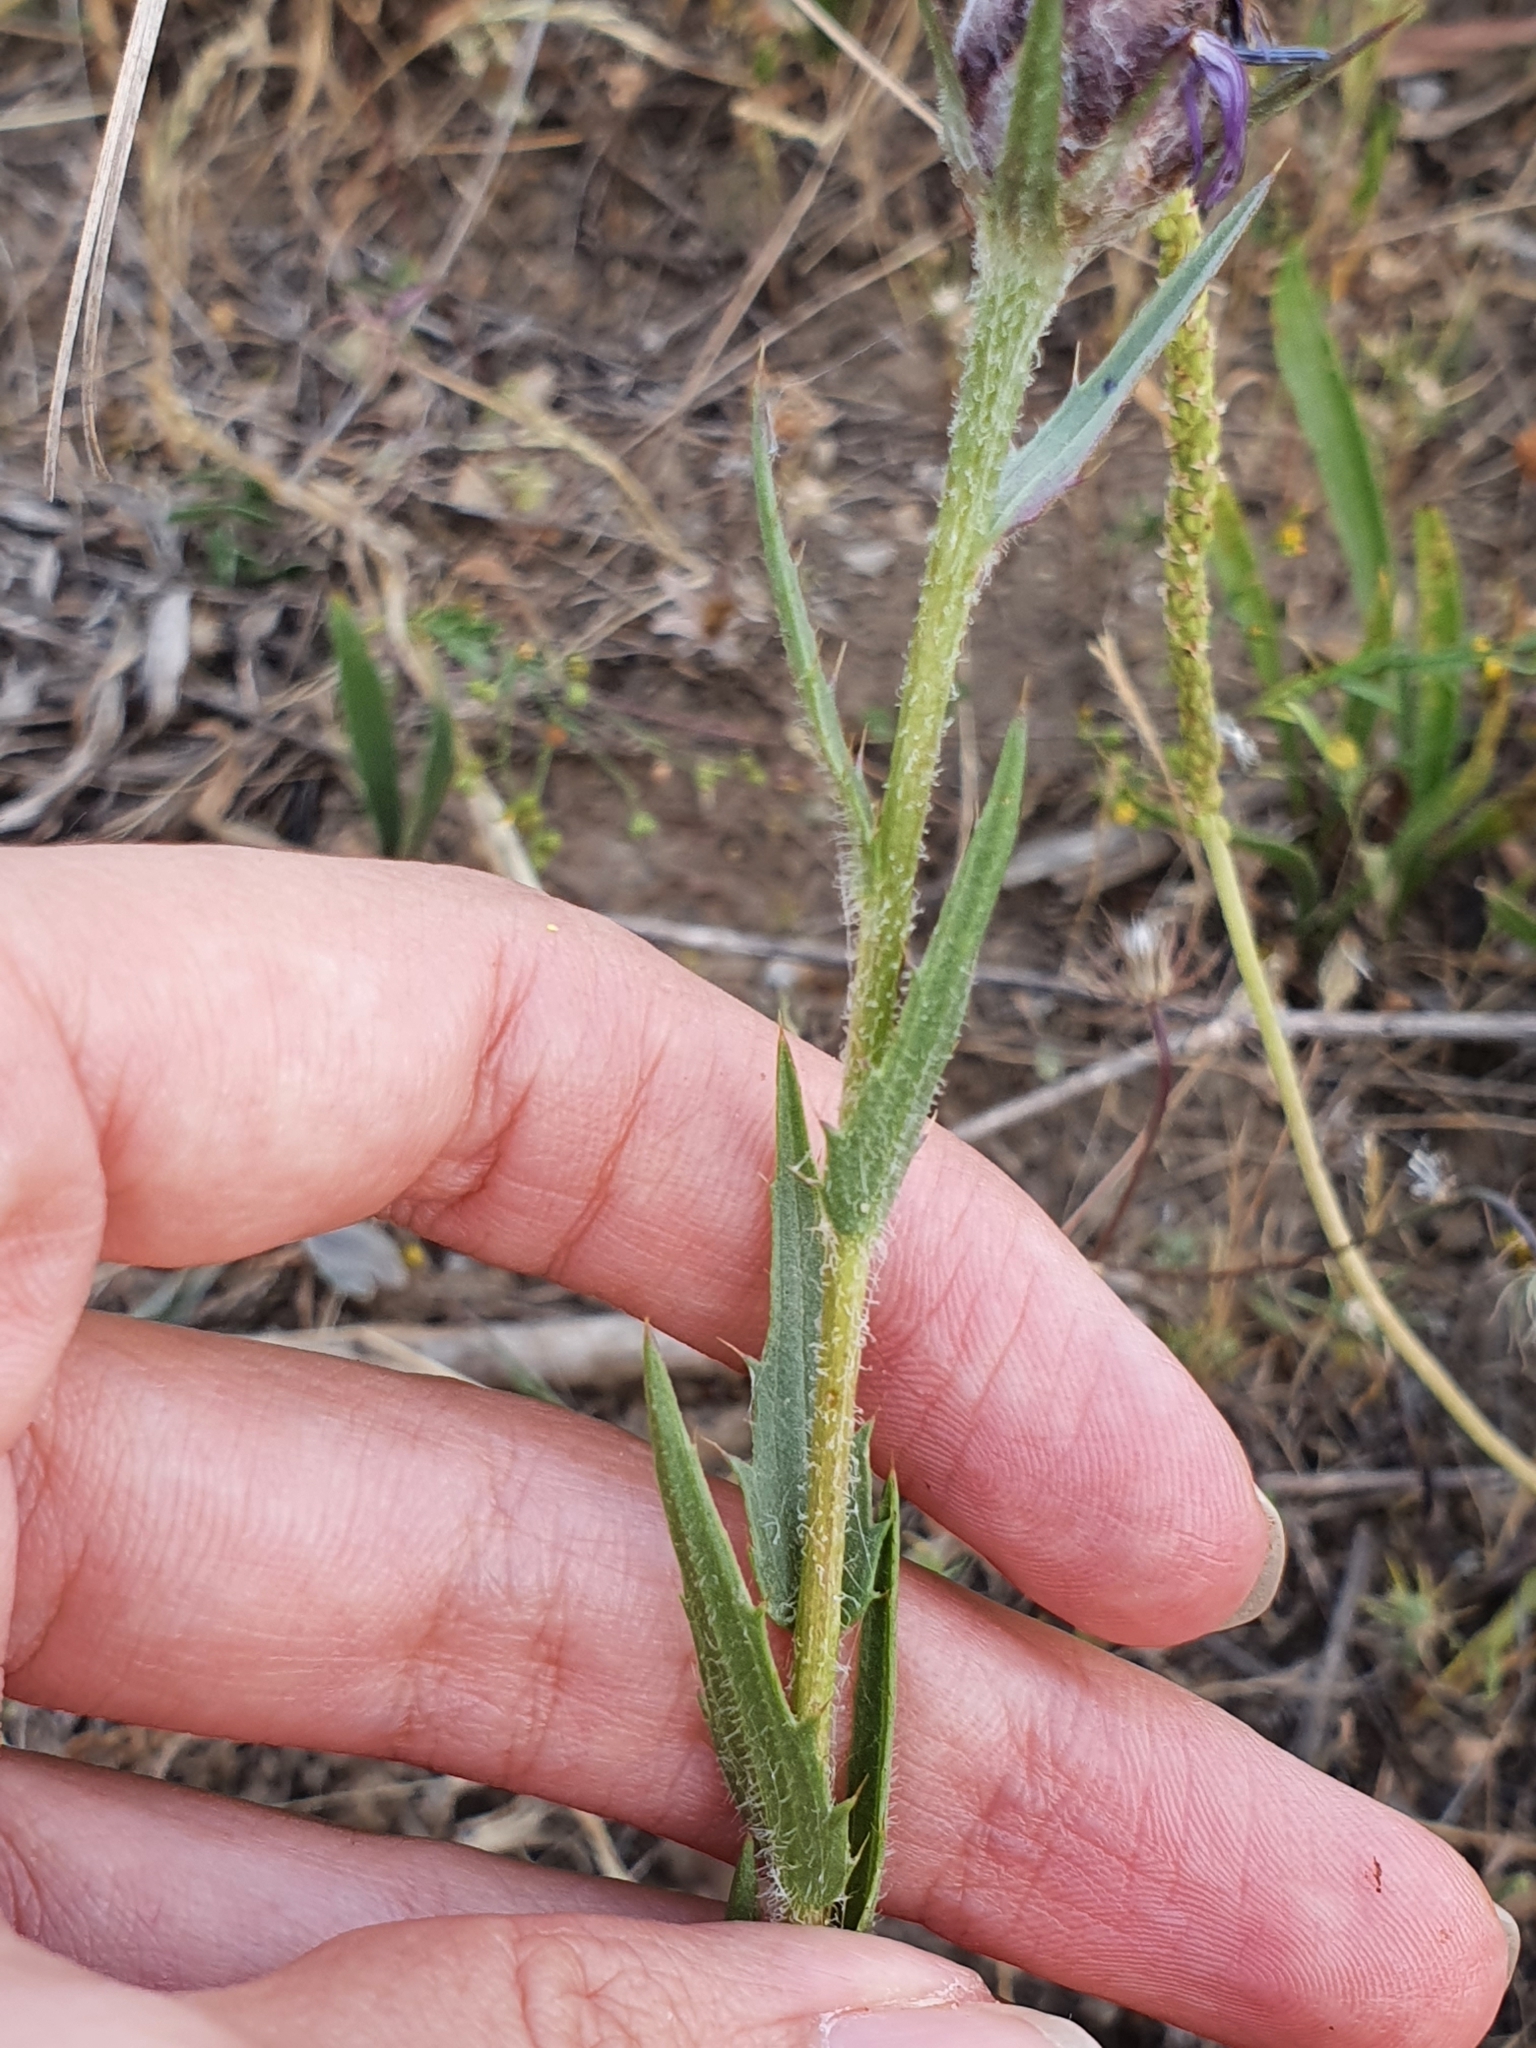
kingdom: Plantae
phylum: Tracheophyta
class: Magnoliopsida
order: Asterales
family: Asteraceae
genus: Carthamus
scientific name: Carthamus multifidus
